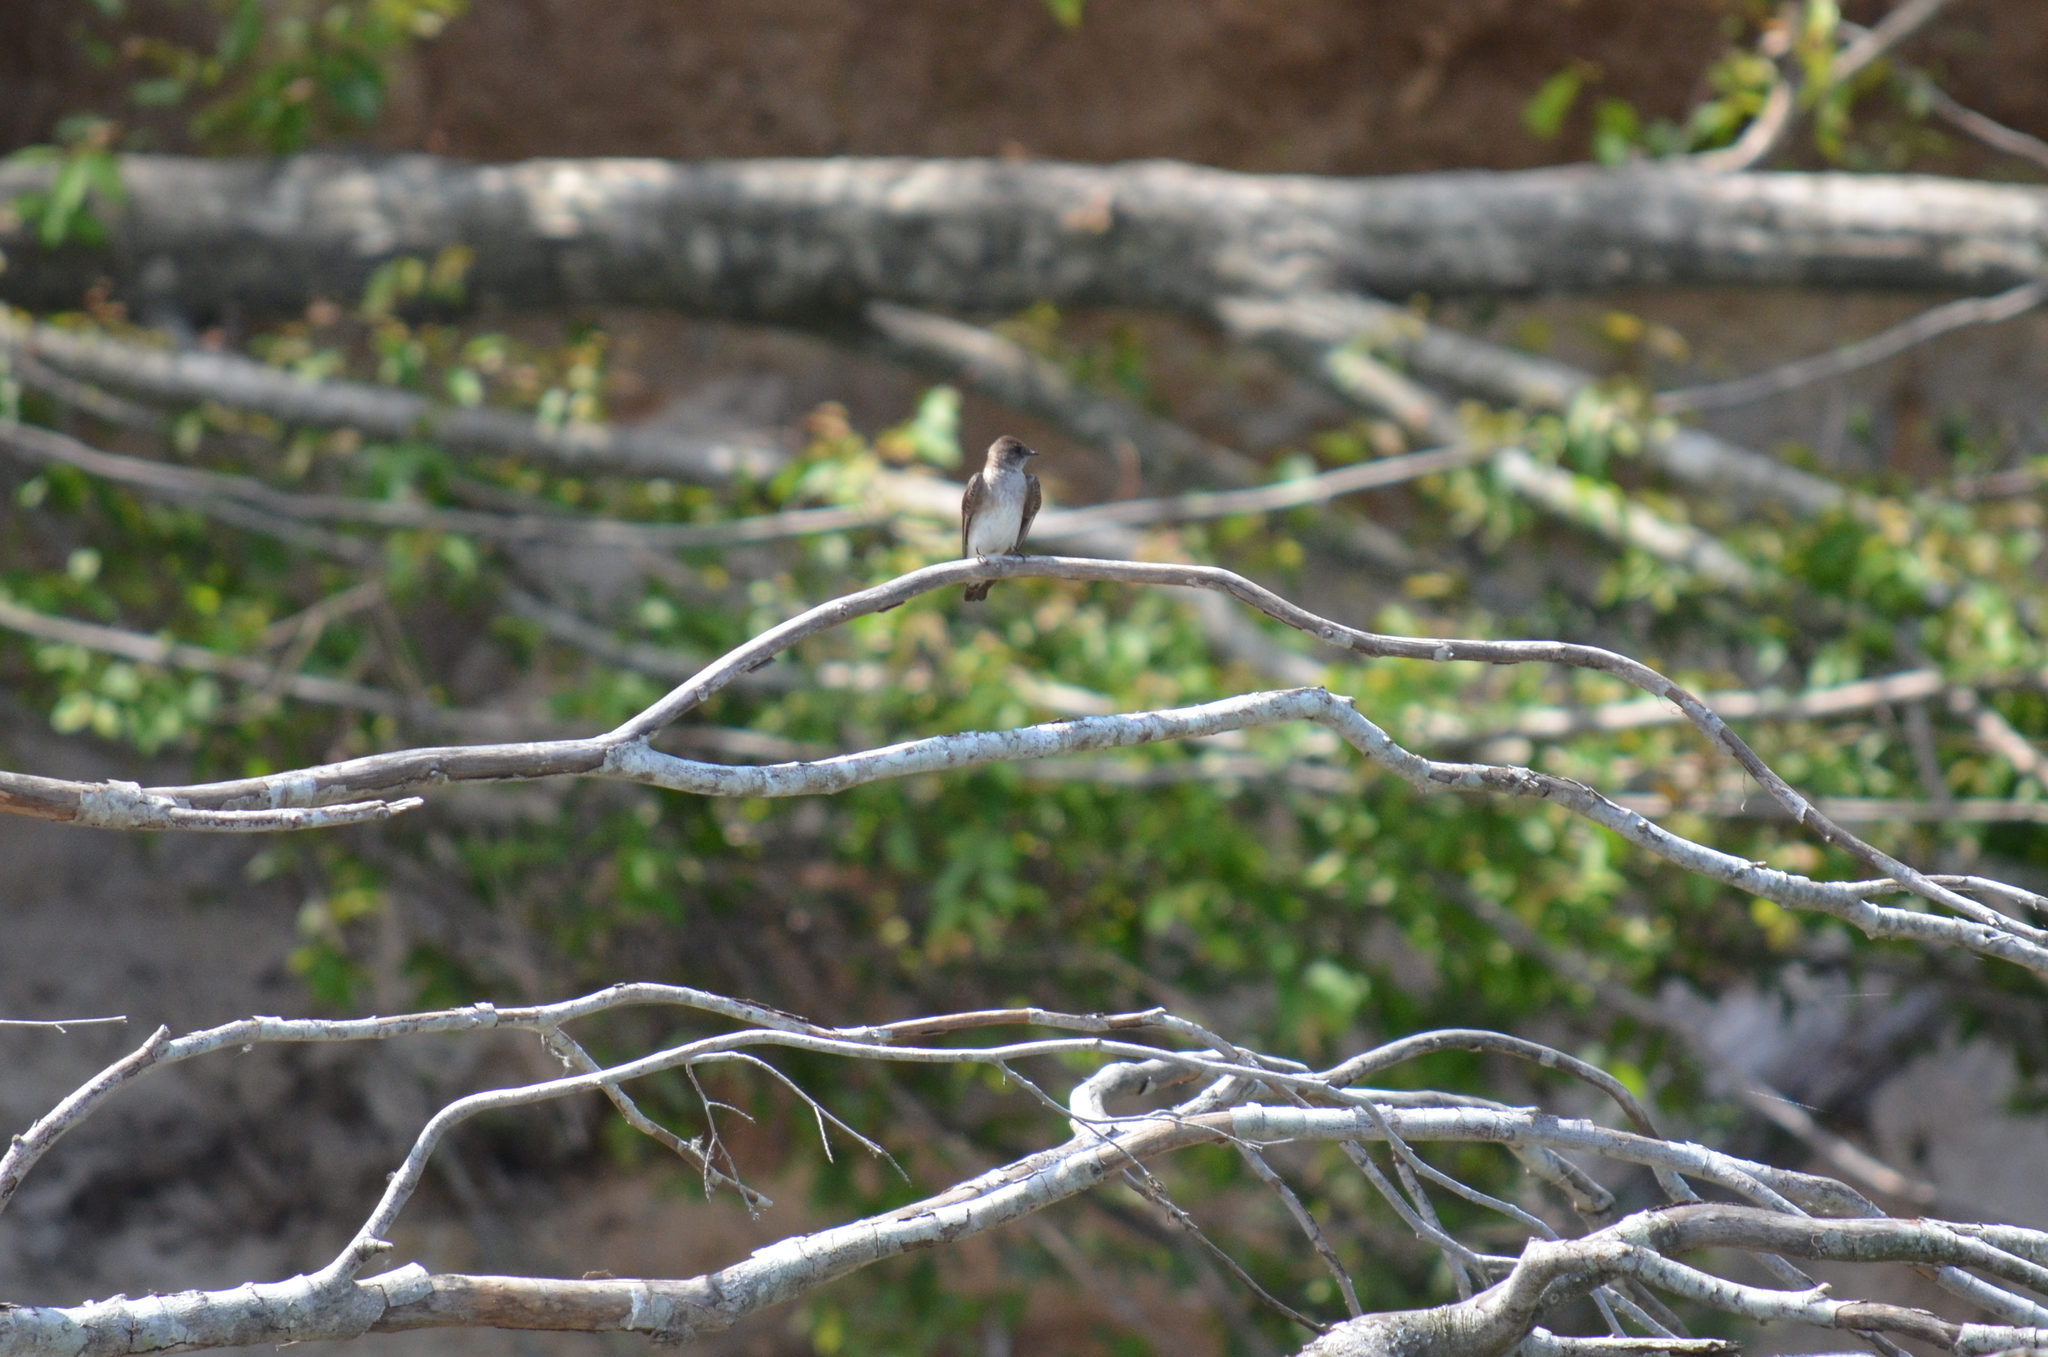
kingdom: Animalia
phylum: Chordata
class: Aves
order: Passeriformes
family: Hirundinidae
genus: Stelgidopteryx
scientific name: Stelgidopteryx serripennis
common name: Northern rough-winged swallow
